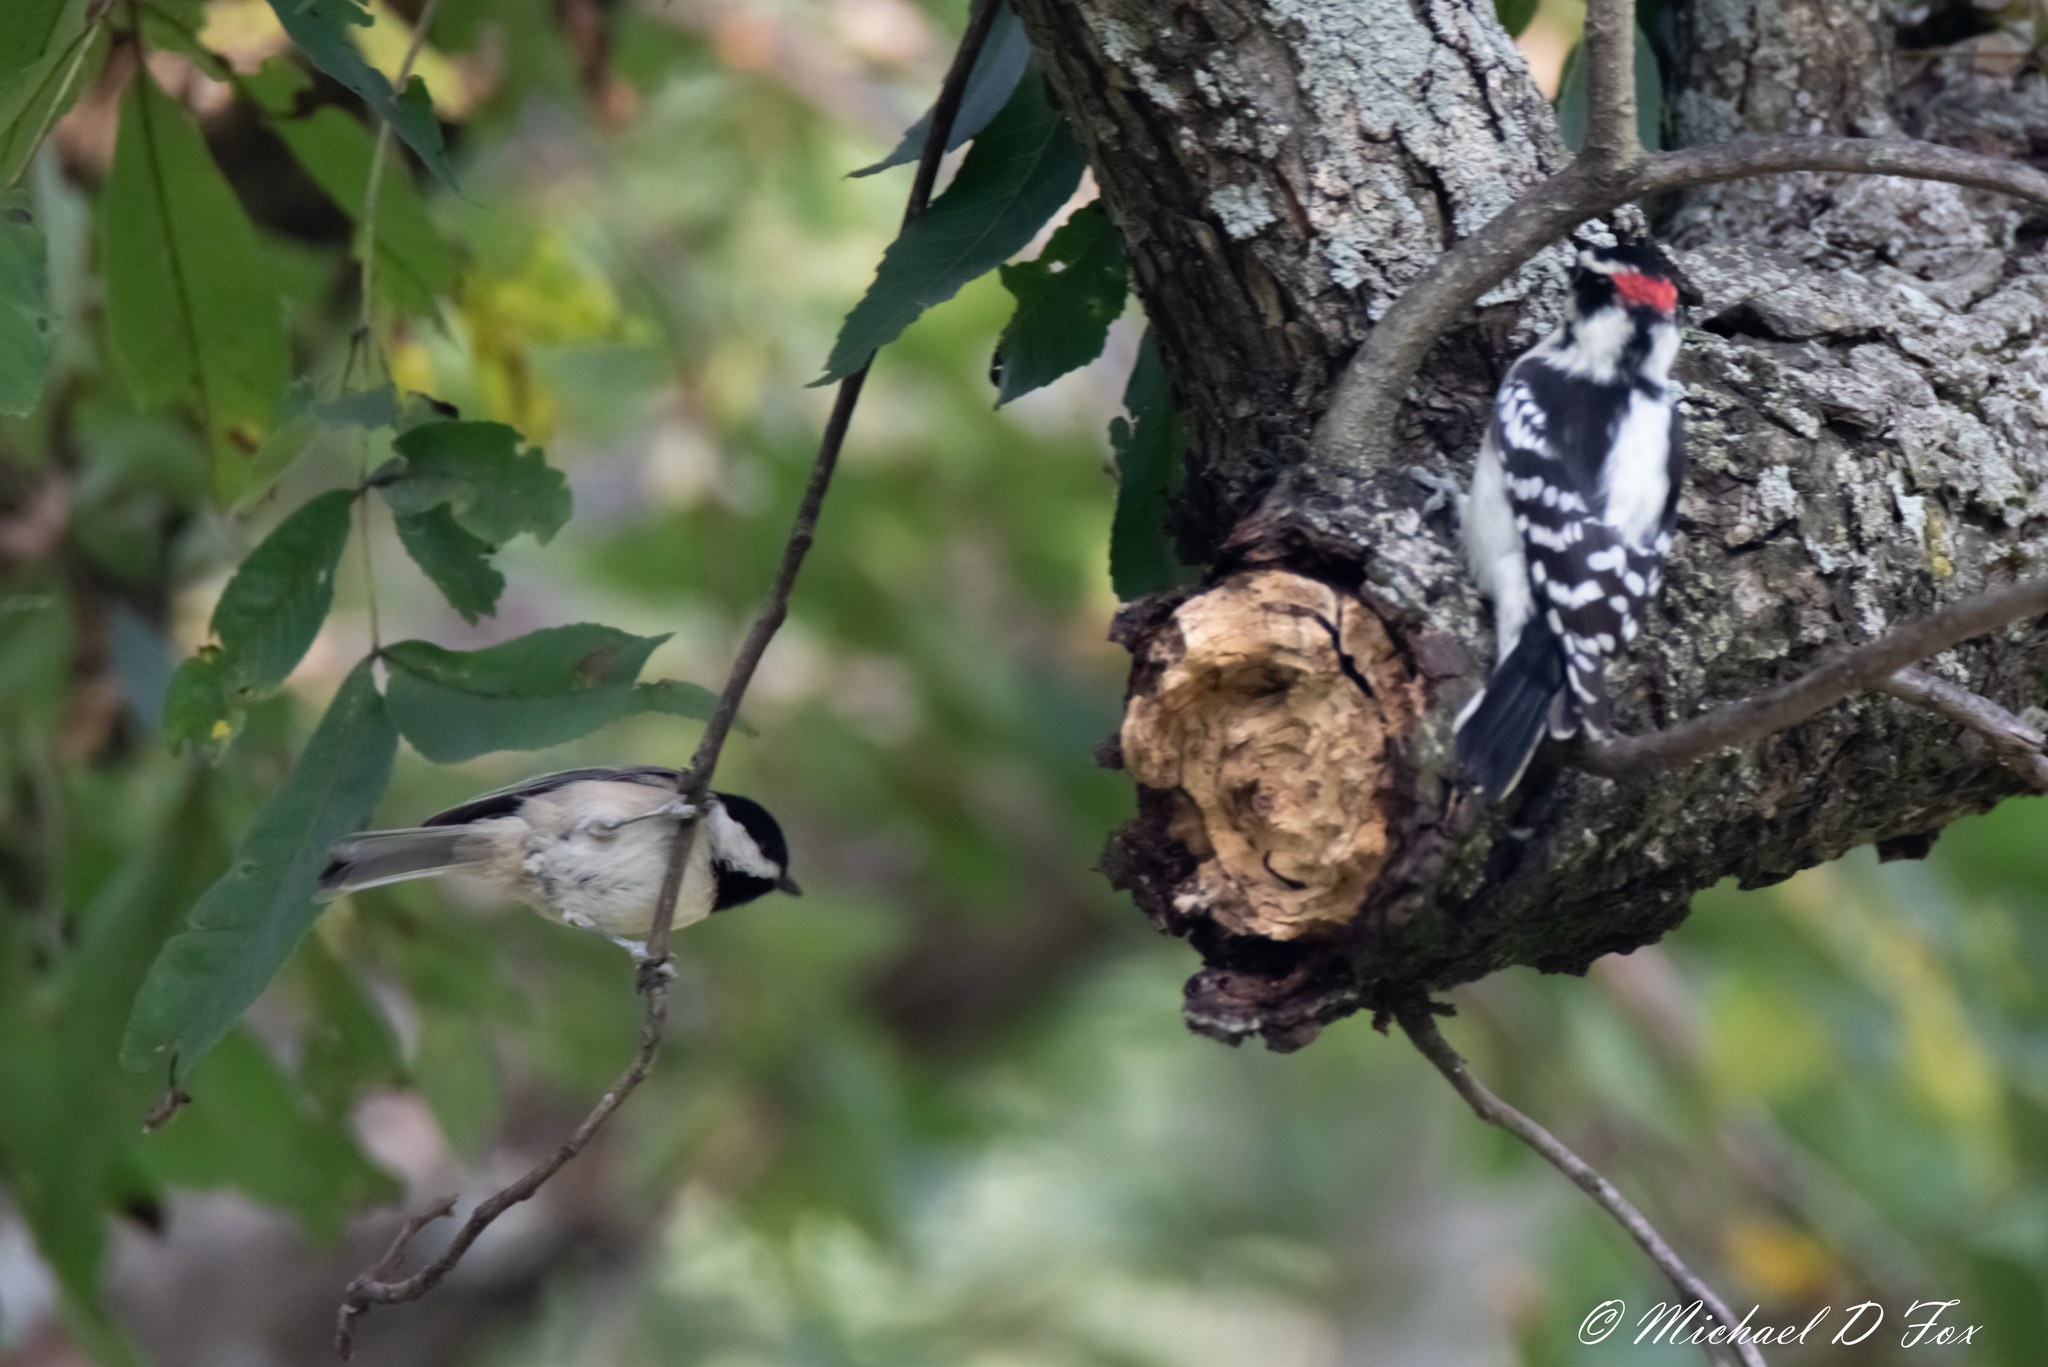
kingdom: Animalia
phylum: Chordata
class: Aves
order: Passeriformes
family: Paridae
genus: Poecile
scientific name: Poecile carolinensis
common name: Carolina chickadee
